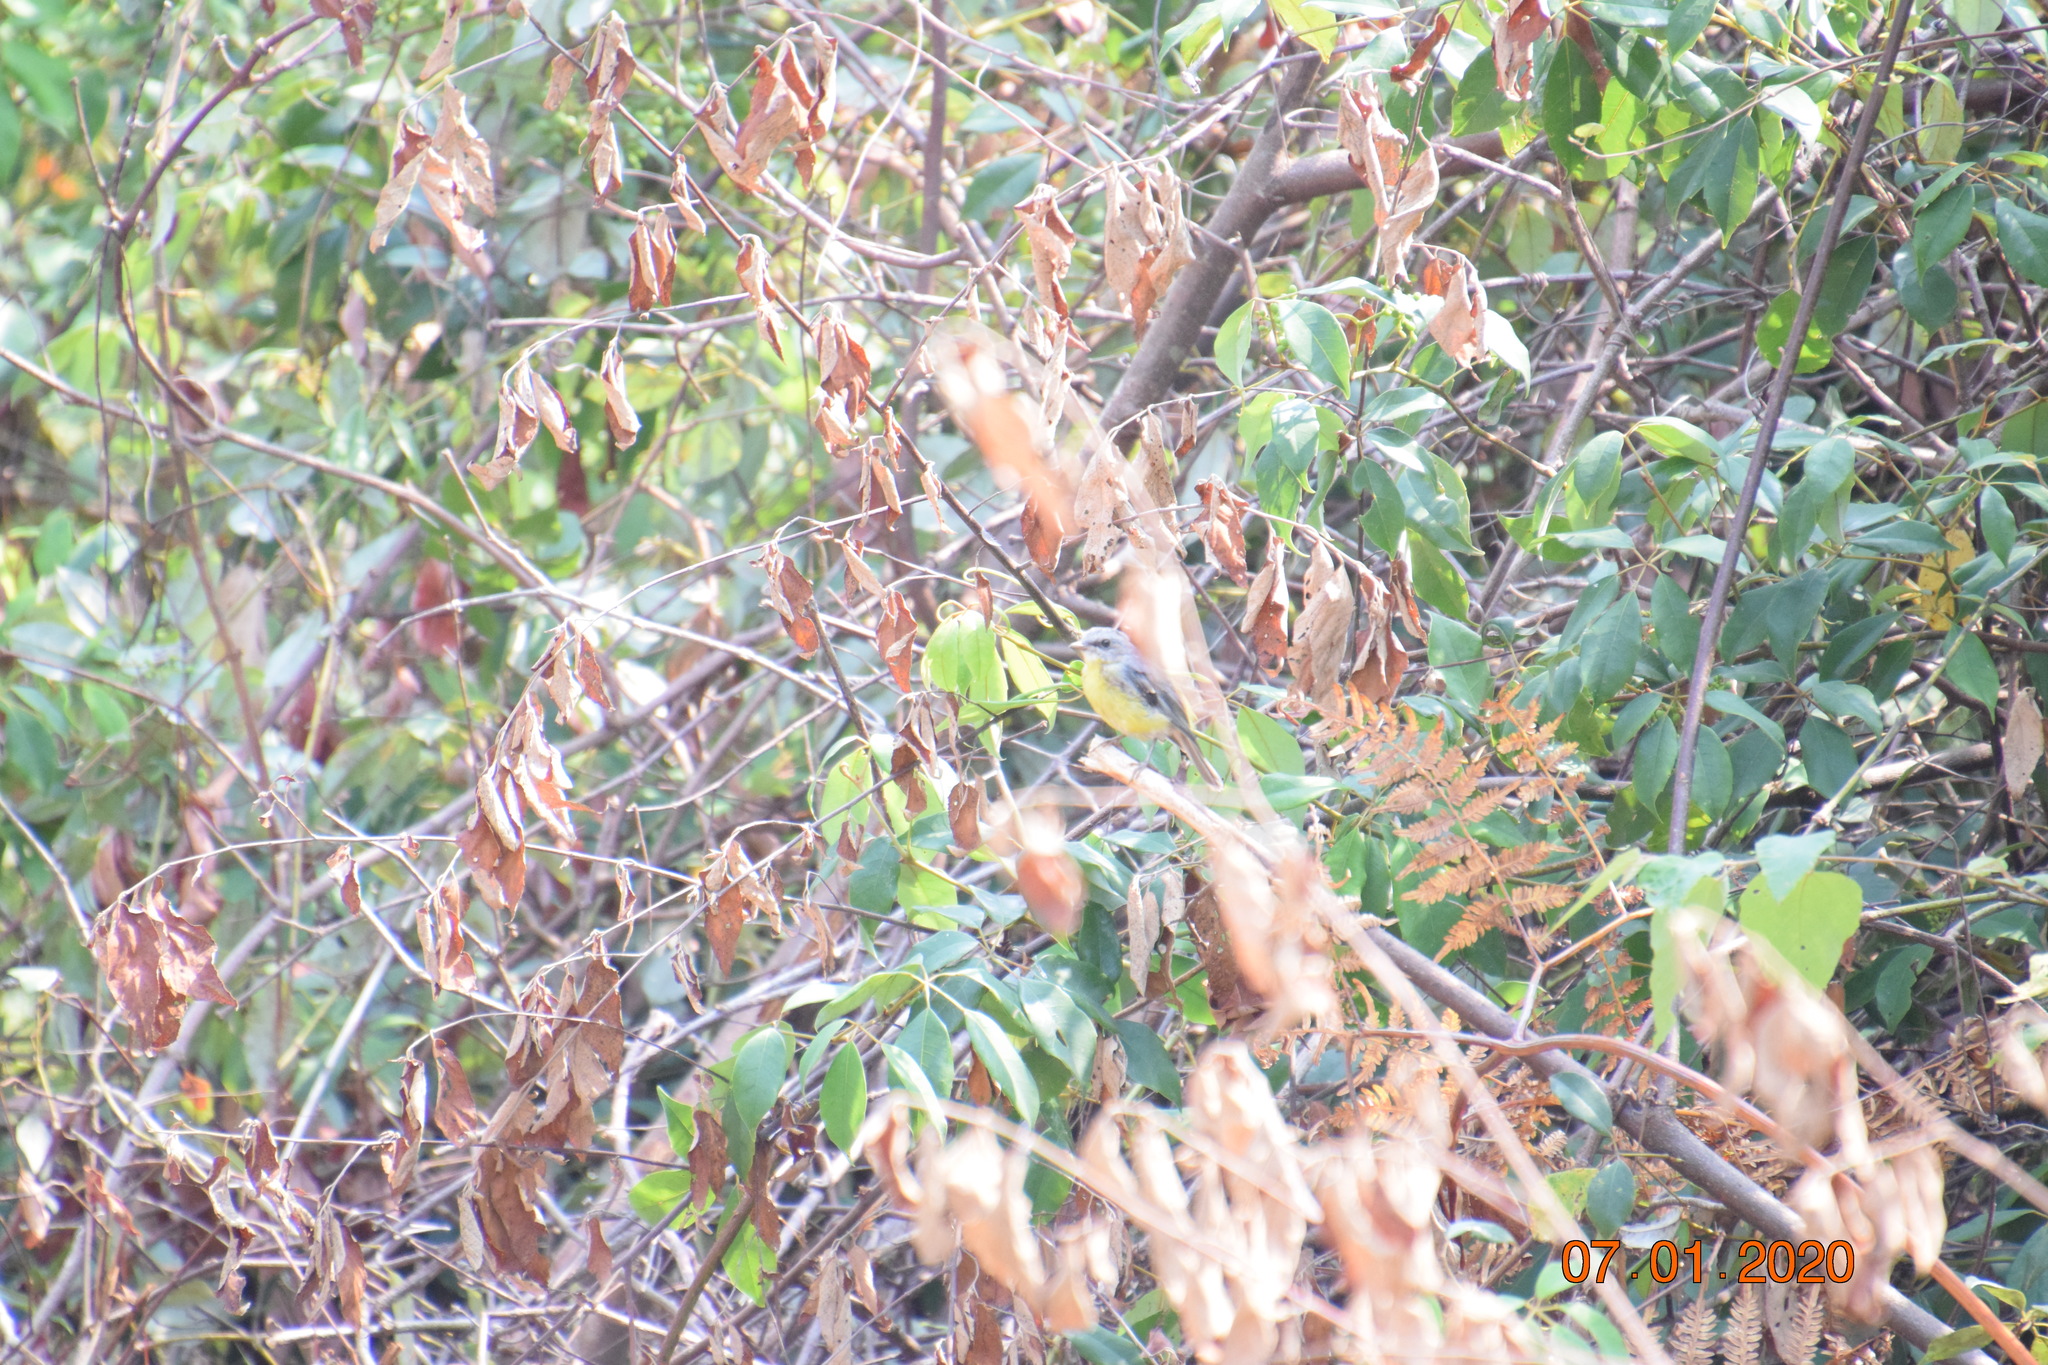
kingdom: Animalia
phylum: Chordata
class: Aves
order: Passeriformes
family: Petroicidae
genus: Eopsaltria
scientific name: Eopsaltria australis
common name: Eastern yellow robin
